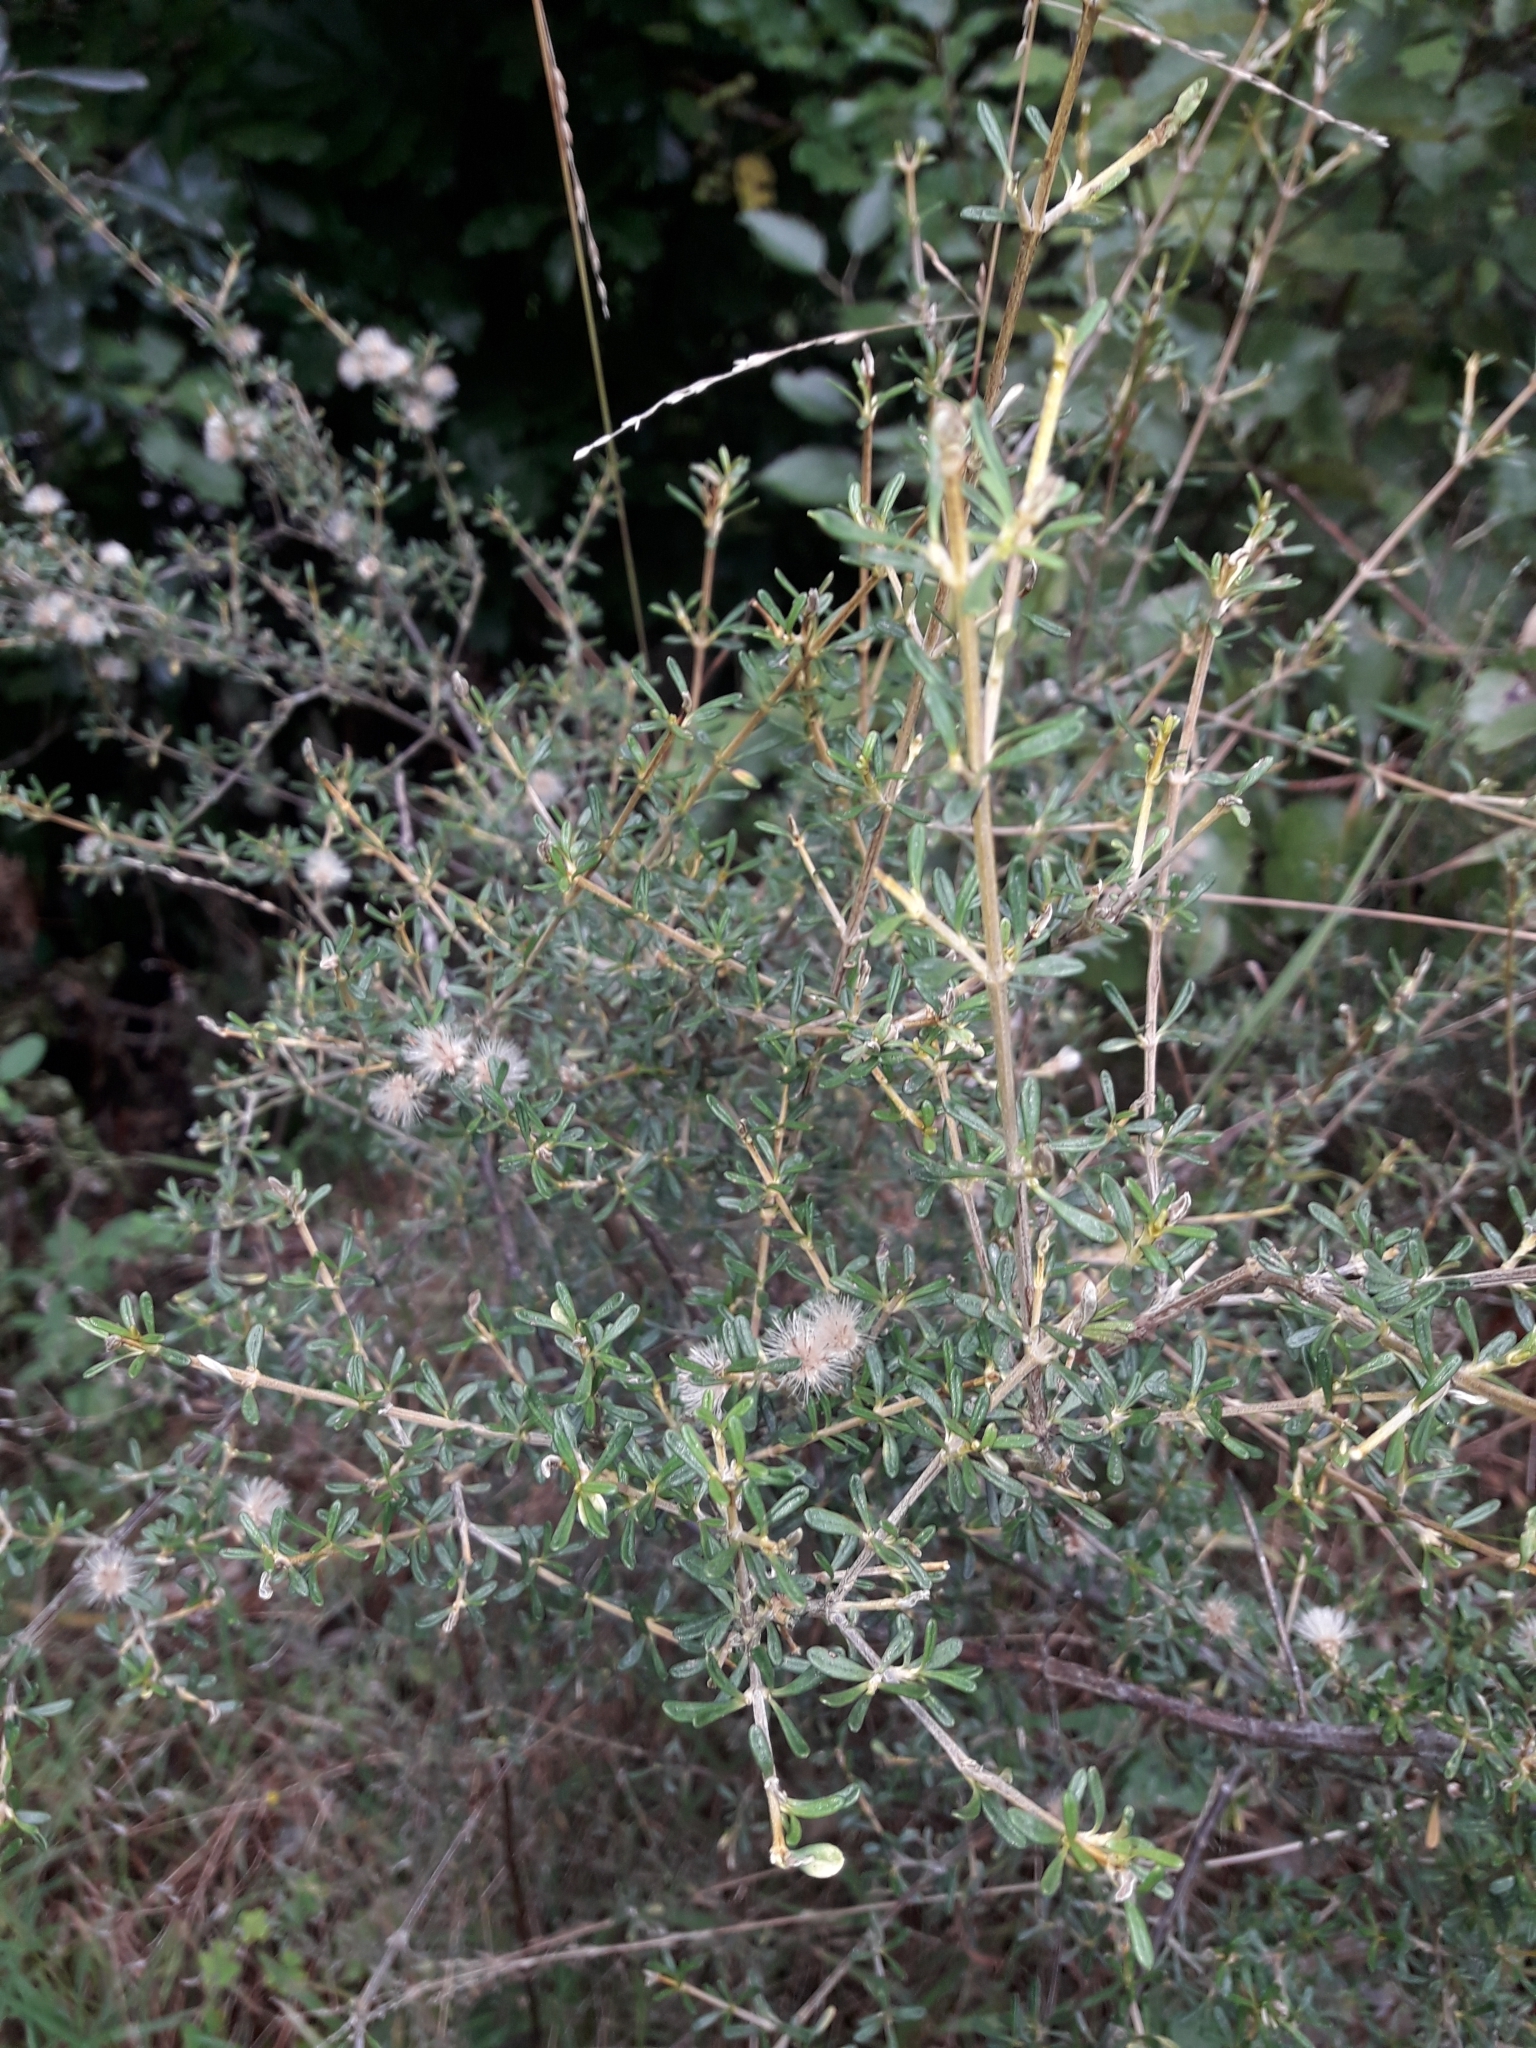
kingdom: Plantae
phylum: Tracheophyta
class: Magnoliopsida
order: Asterales
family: Asteraceae
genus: Olearia
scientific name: Olearia solandri
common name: Coastal daisybush
